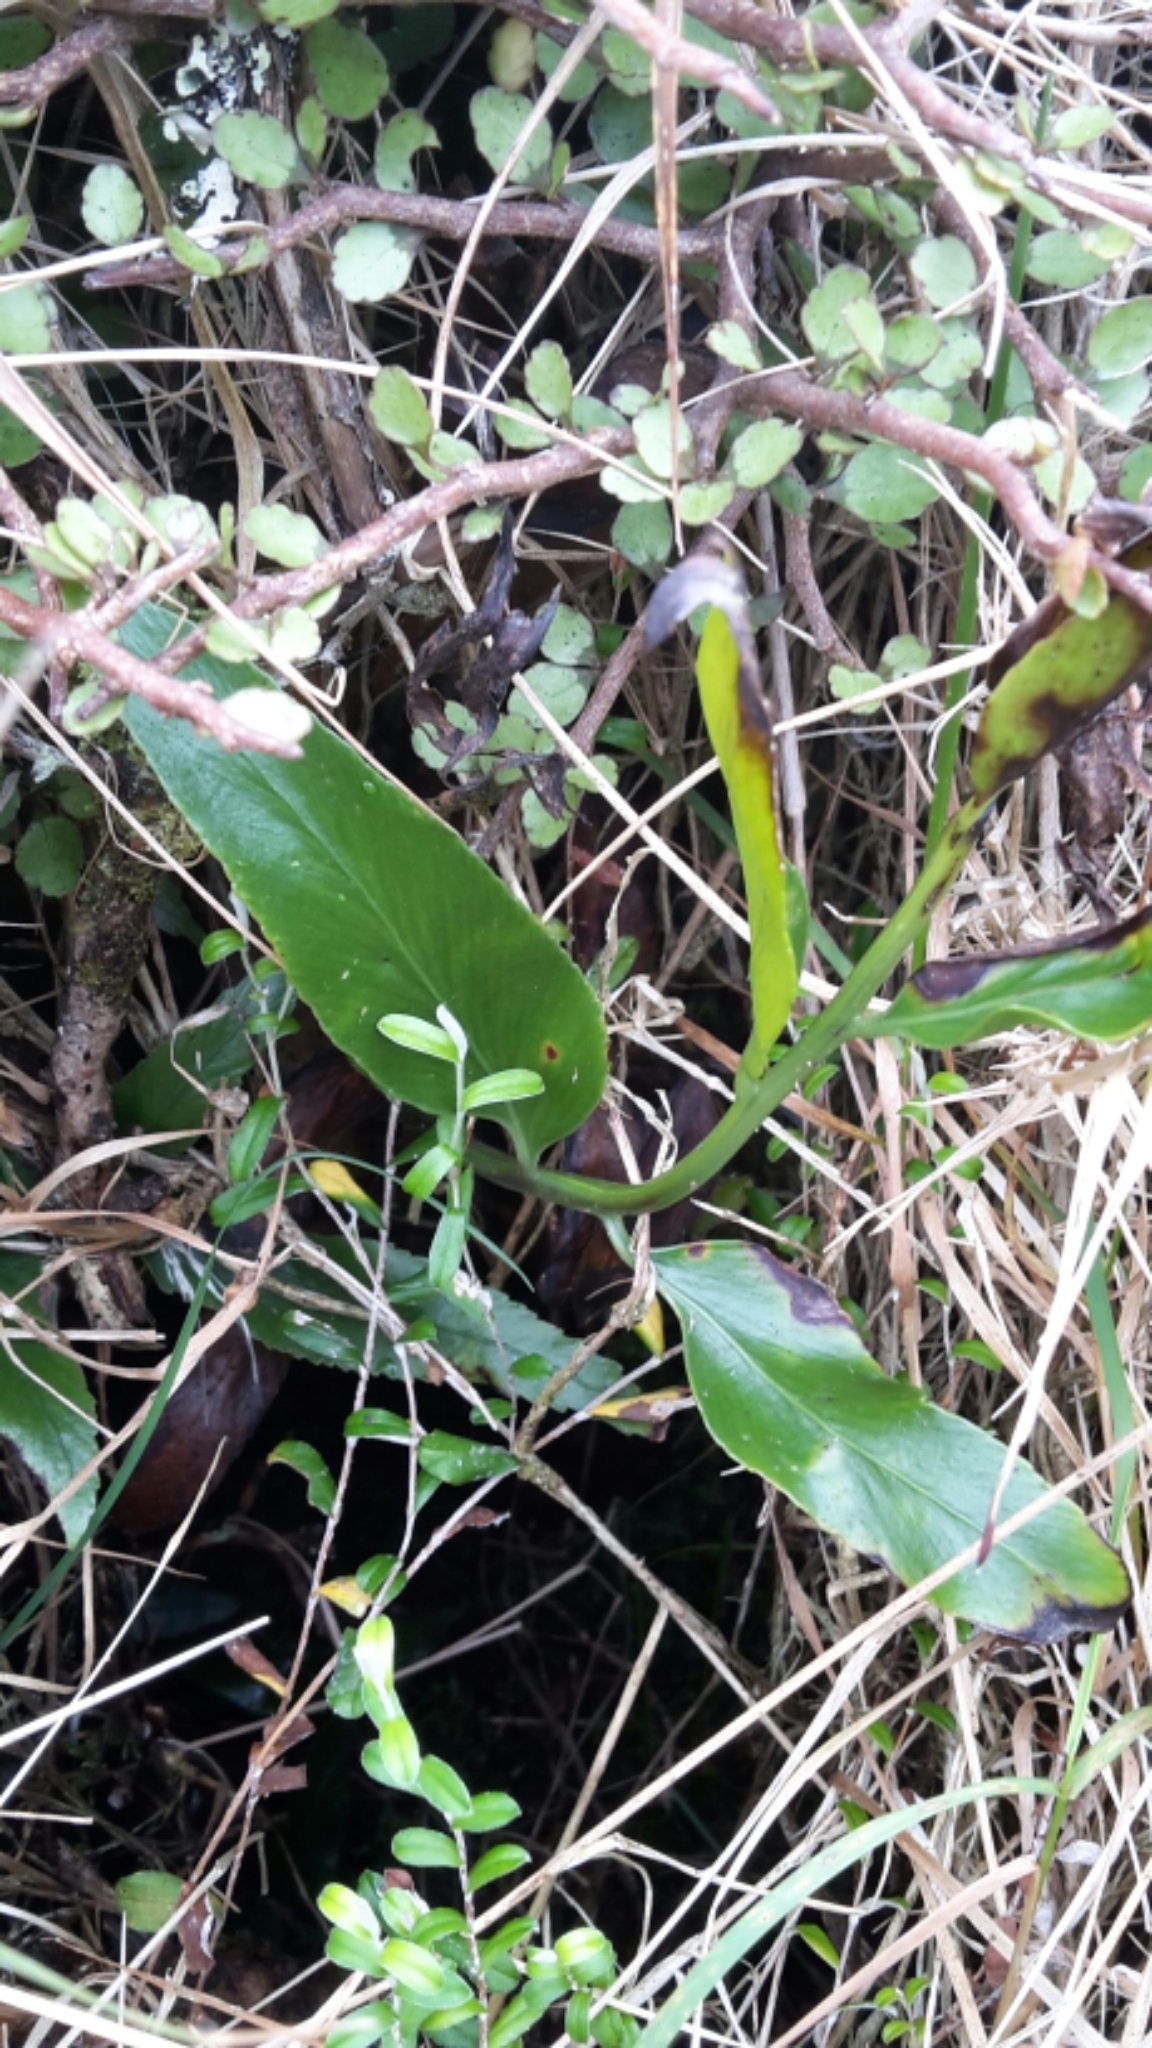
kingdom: Plantae
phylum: Tracheophyta
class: Polypodiopsida
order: Polypodiales
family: Aspleniaceae
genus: Asplenium
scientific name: Asplenium oblongifolium
